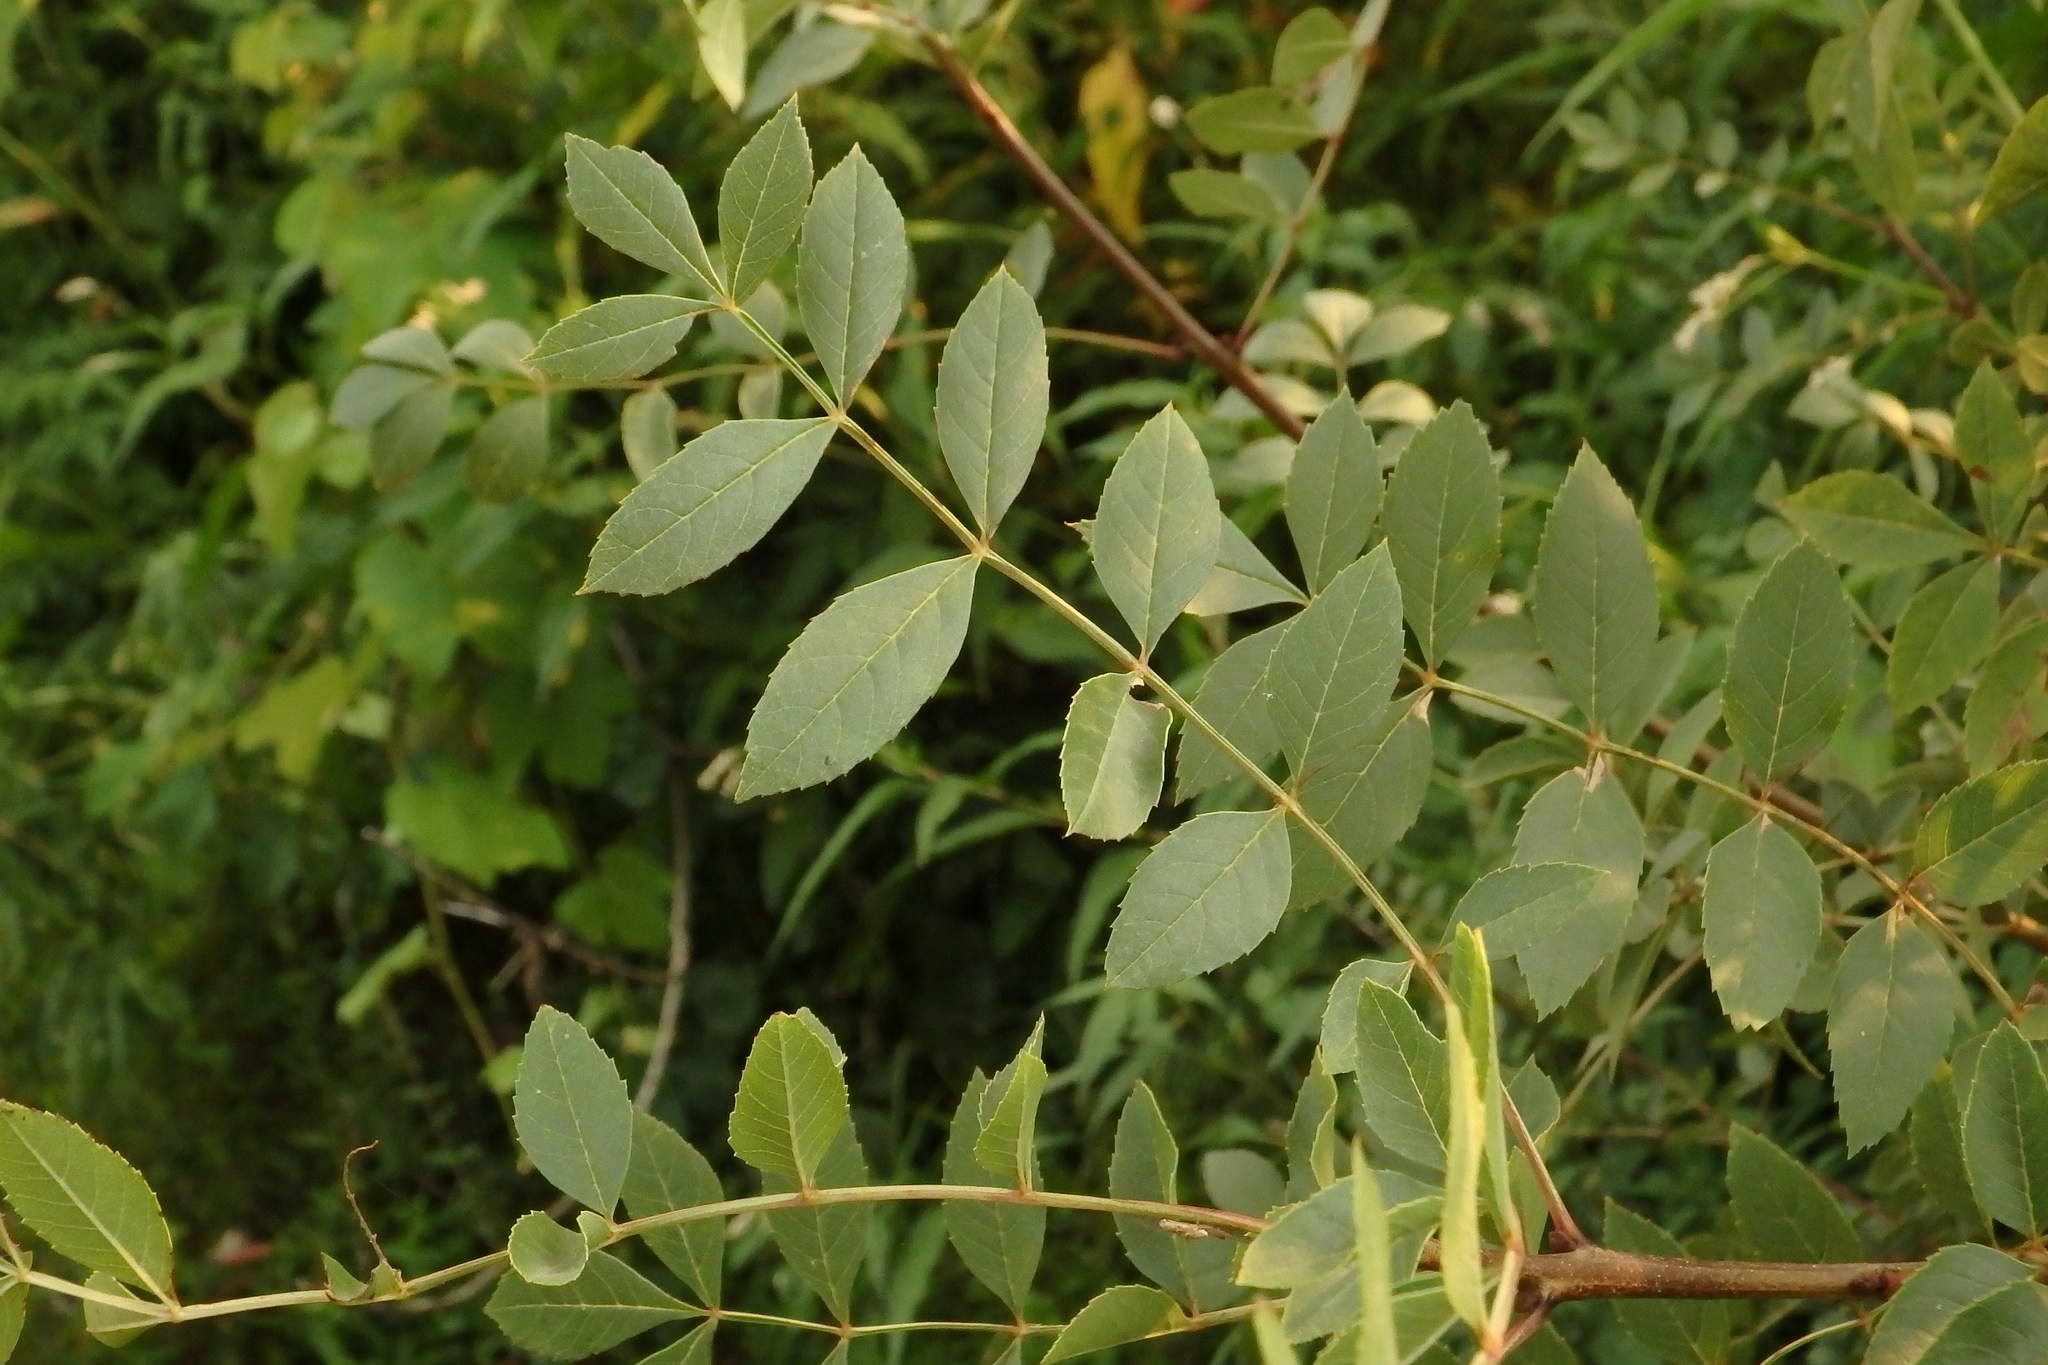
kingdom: Plantae
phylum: Tracheophyta
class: Magnoliopsida
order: Lamiales
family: Oleaceae
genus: Fraxinus
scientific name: Fraxinus angustifolia
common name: Narrow-leafed ash
